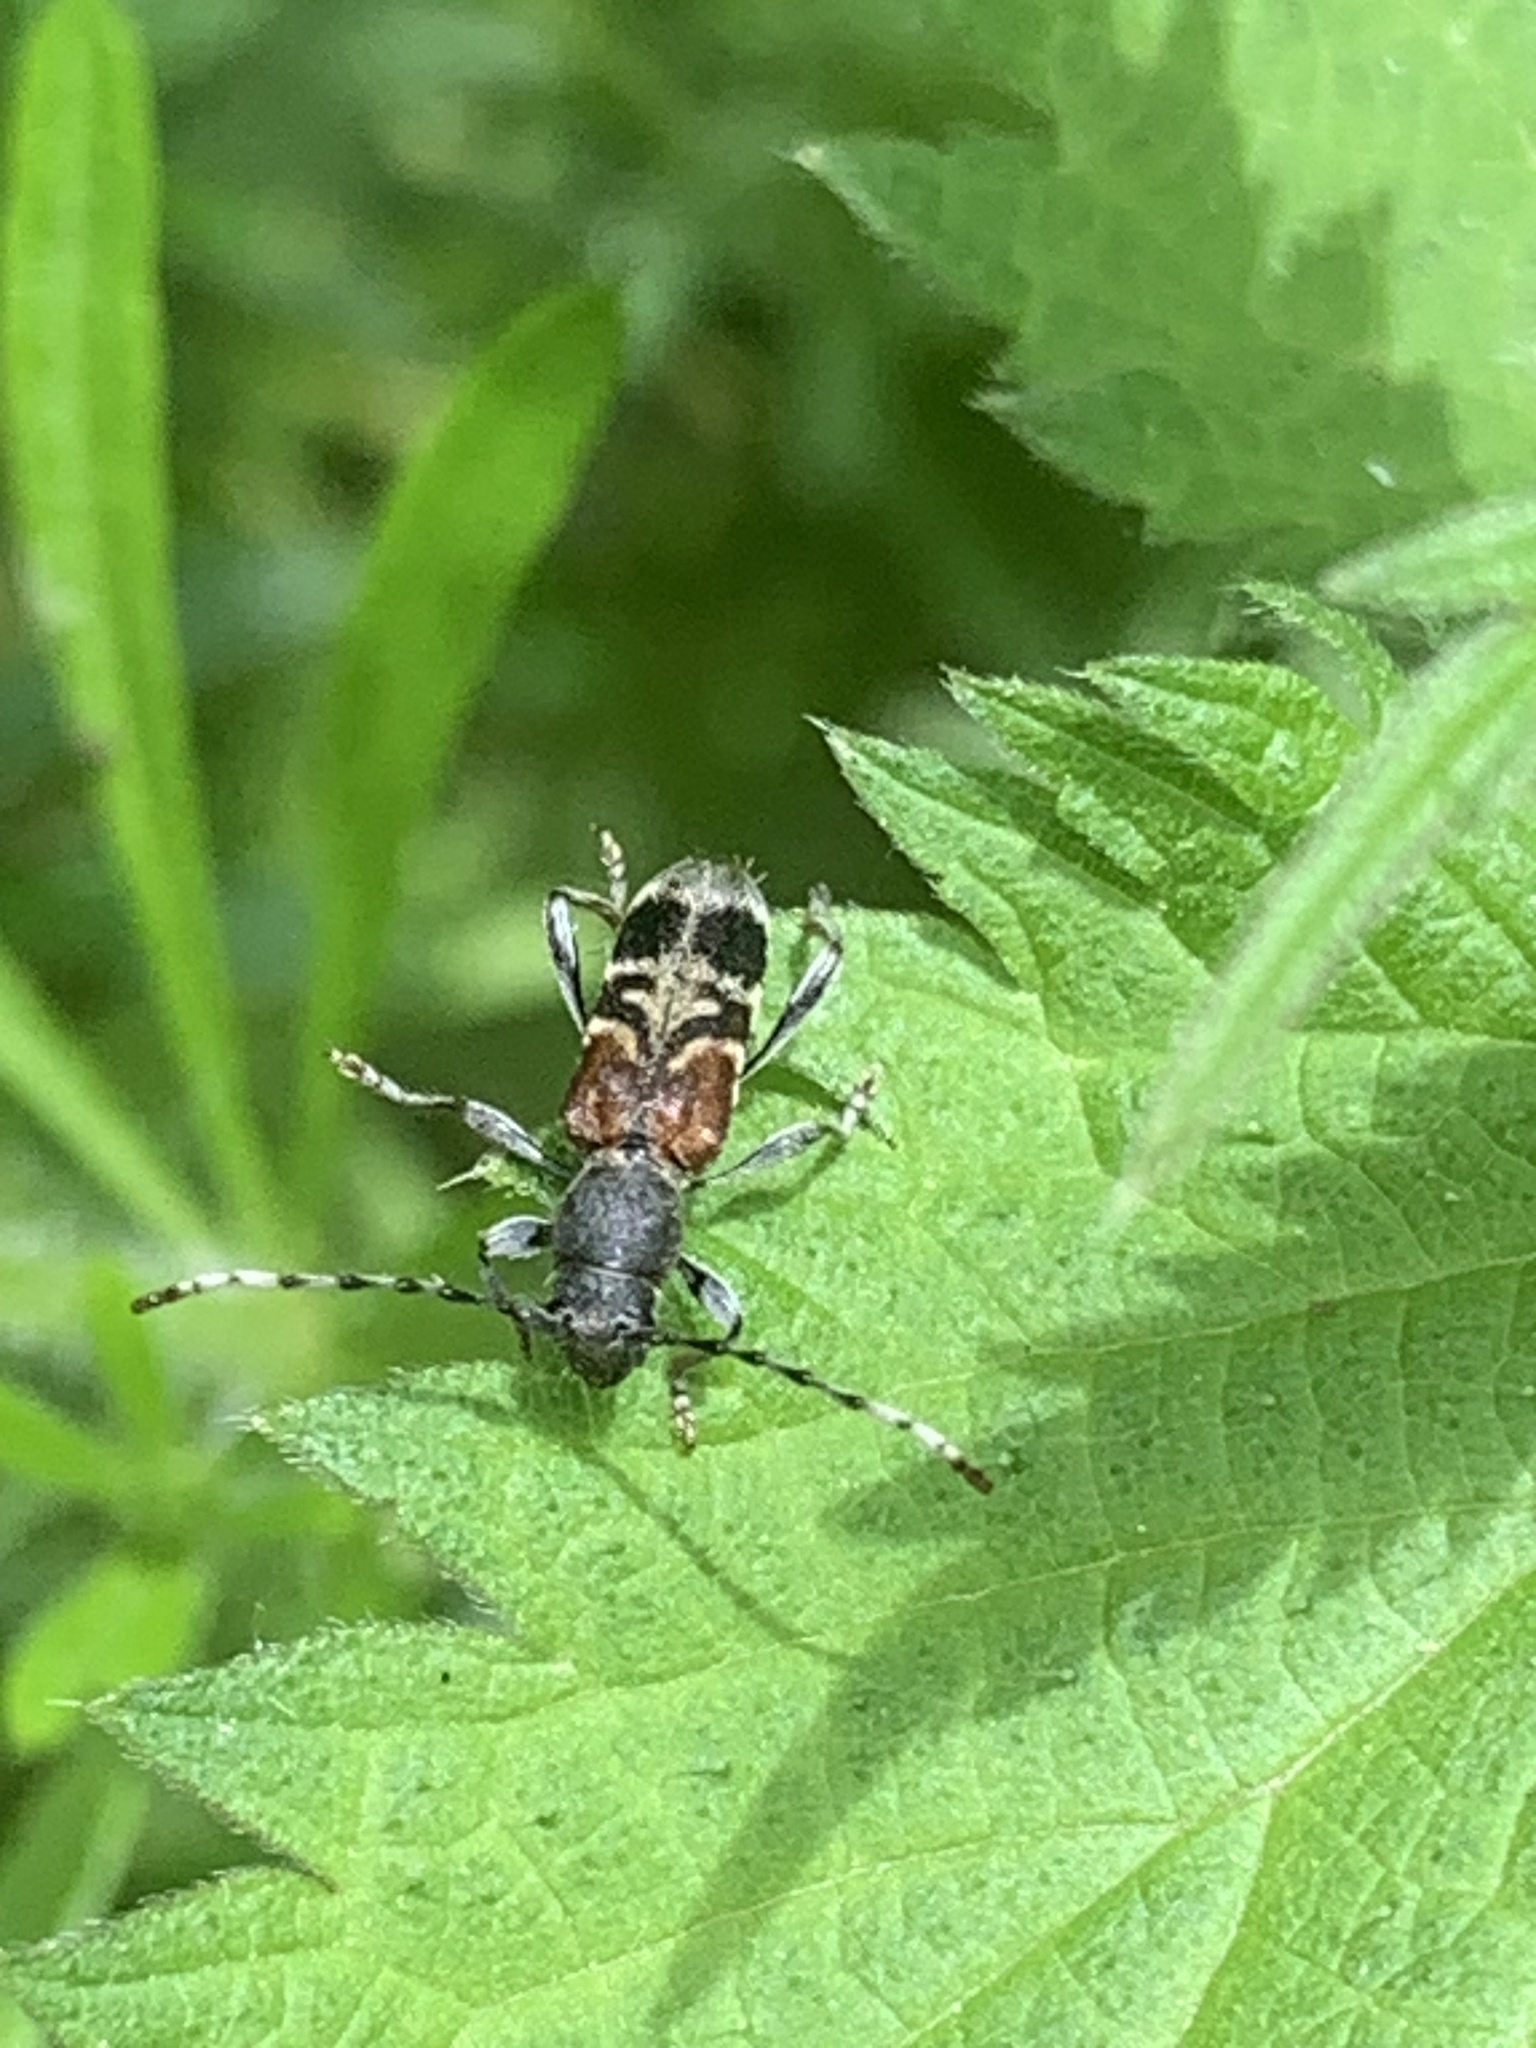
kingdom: Animalia
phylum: Arthropoda
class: Insecta
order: Coleoptera
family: Cerambycidae
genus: Anaglyptus
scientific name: Anaglyptus mysticus
